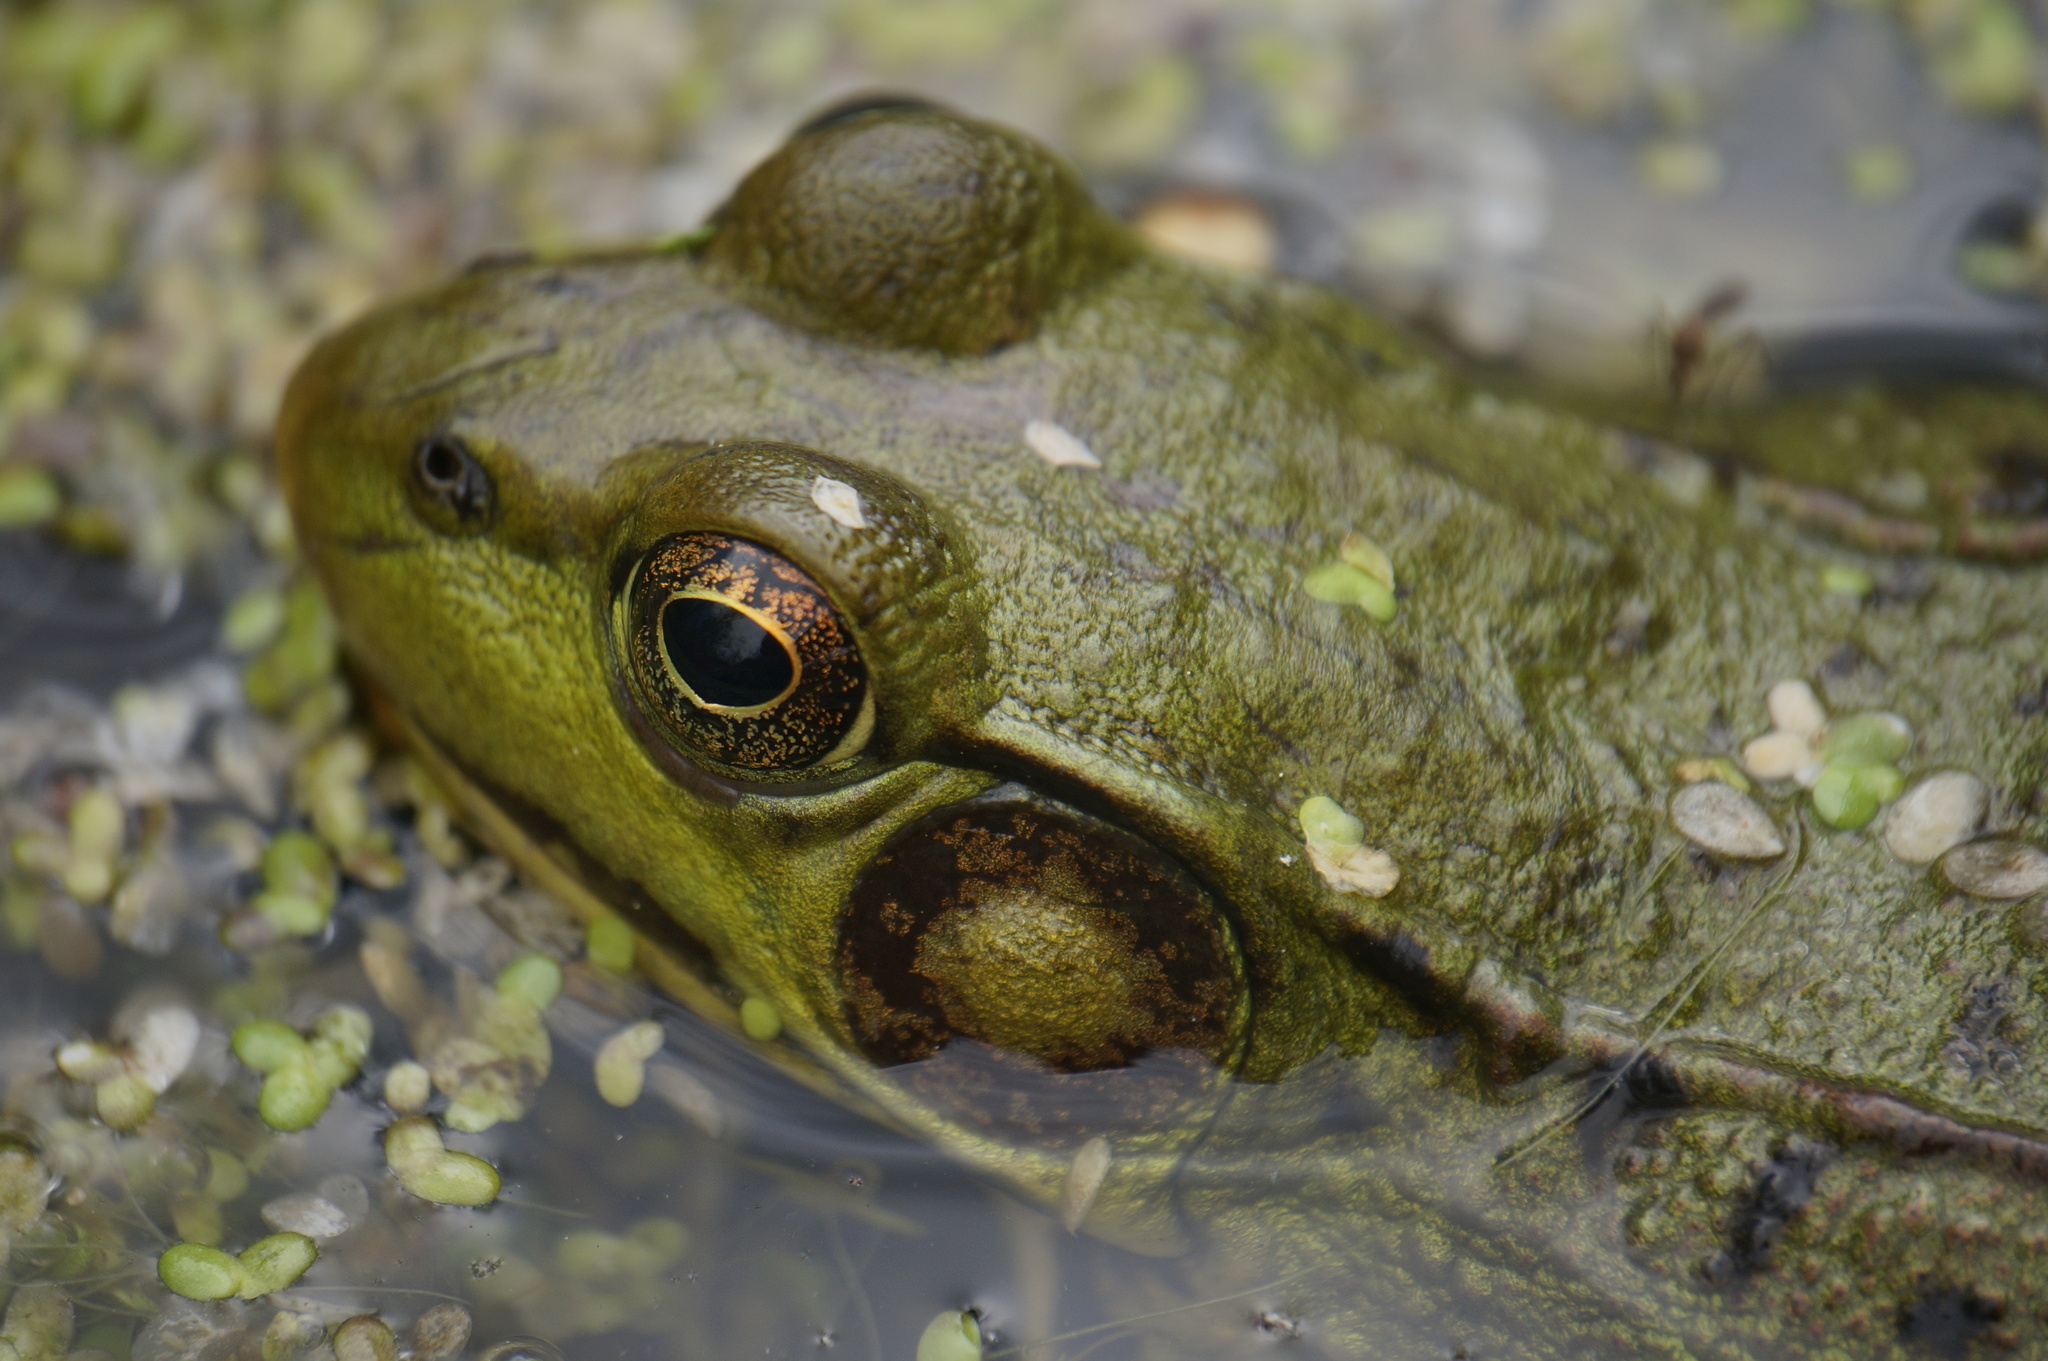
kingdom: Animalia
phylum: Chordata
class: Amphibia
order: Anura
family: Ranidae
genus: Lithobates
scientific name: Lithobates clamitans
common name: Green frog
